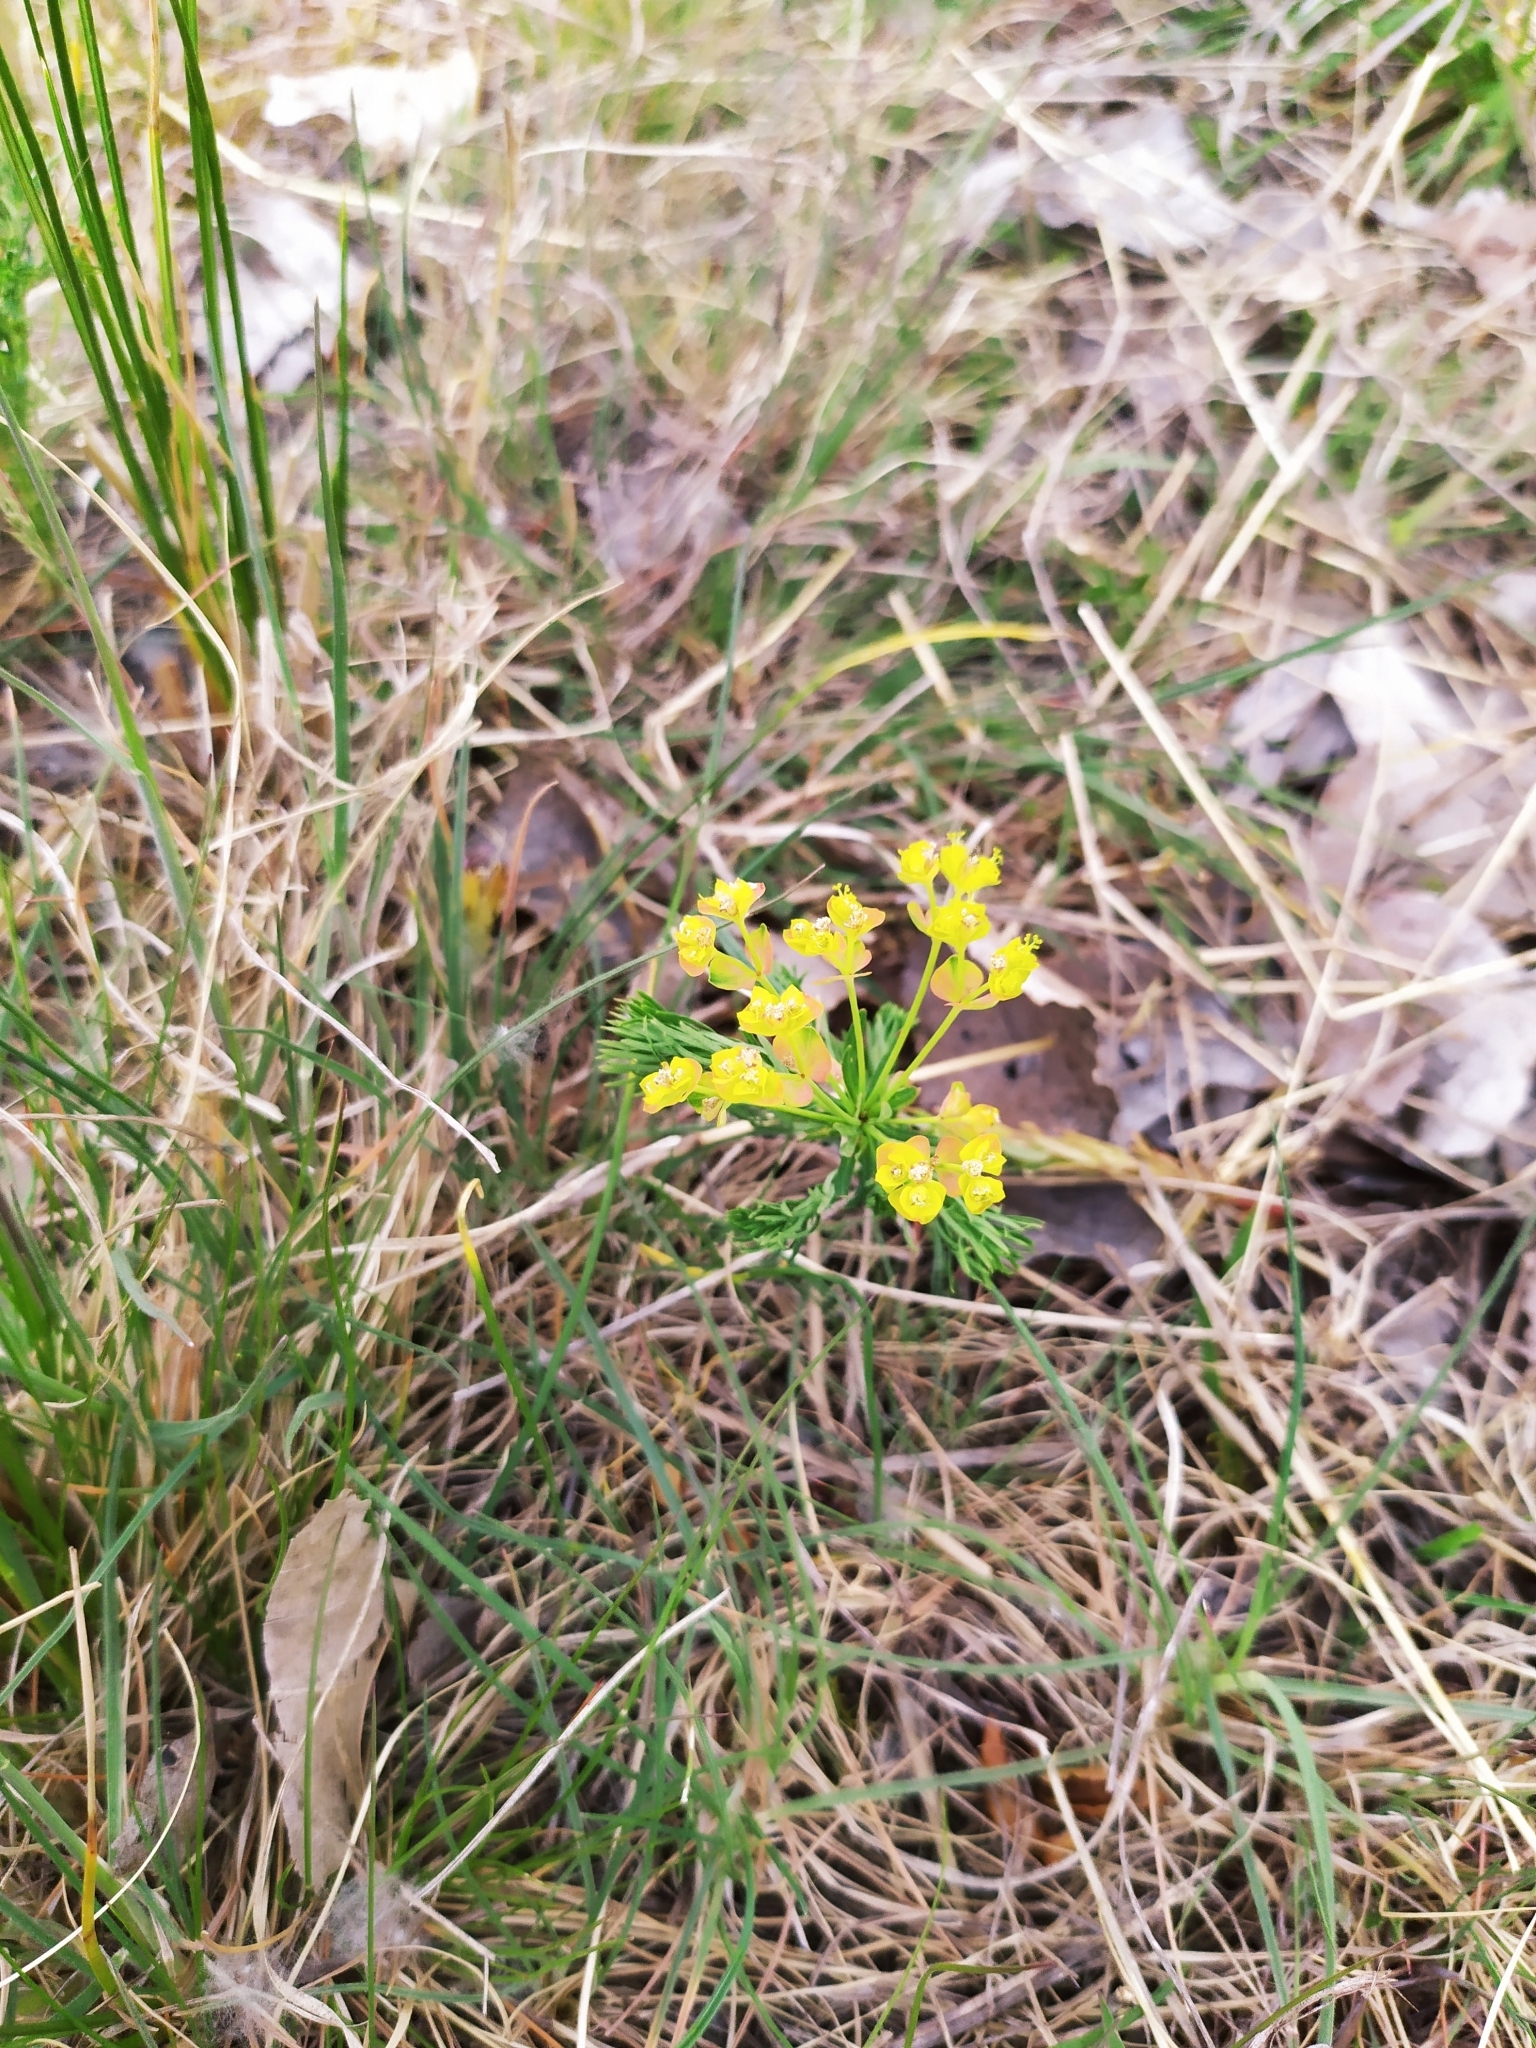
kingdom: Plantae
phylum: Tracheophyta
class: Magnoliopsida
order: Malpighiales
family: Euphorbiaceae
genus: Euphorbia
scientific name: Euphorbia cyparissias
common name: Cypress spurge
